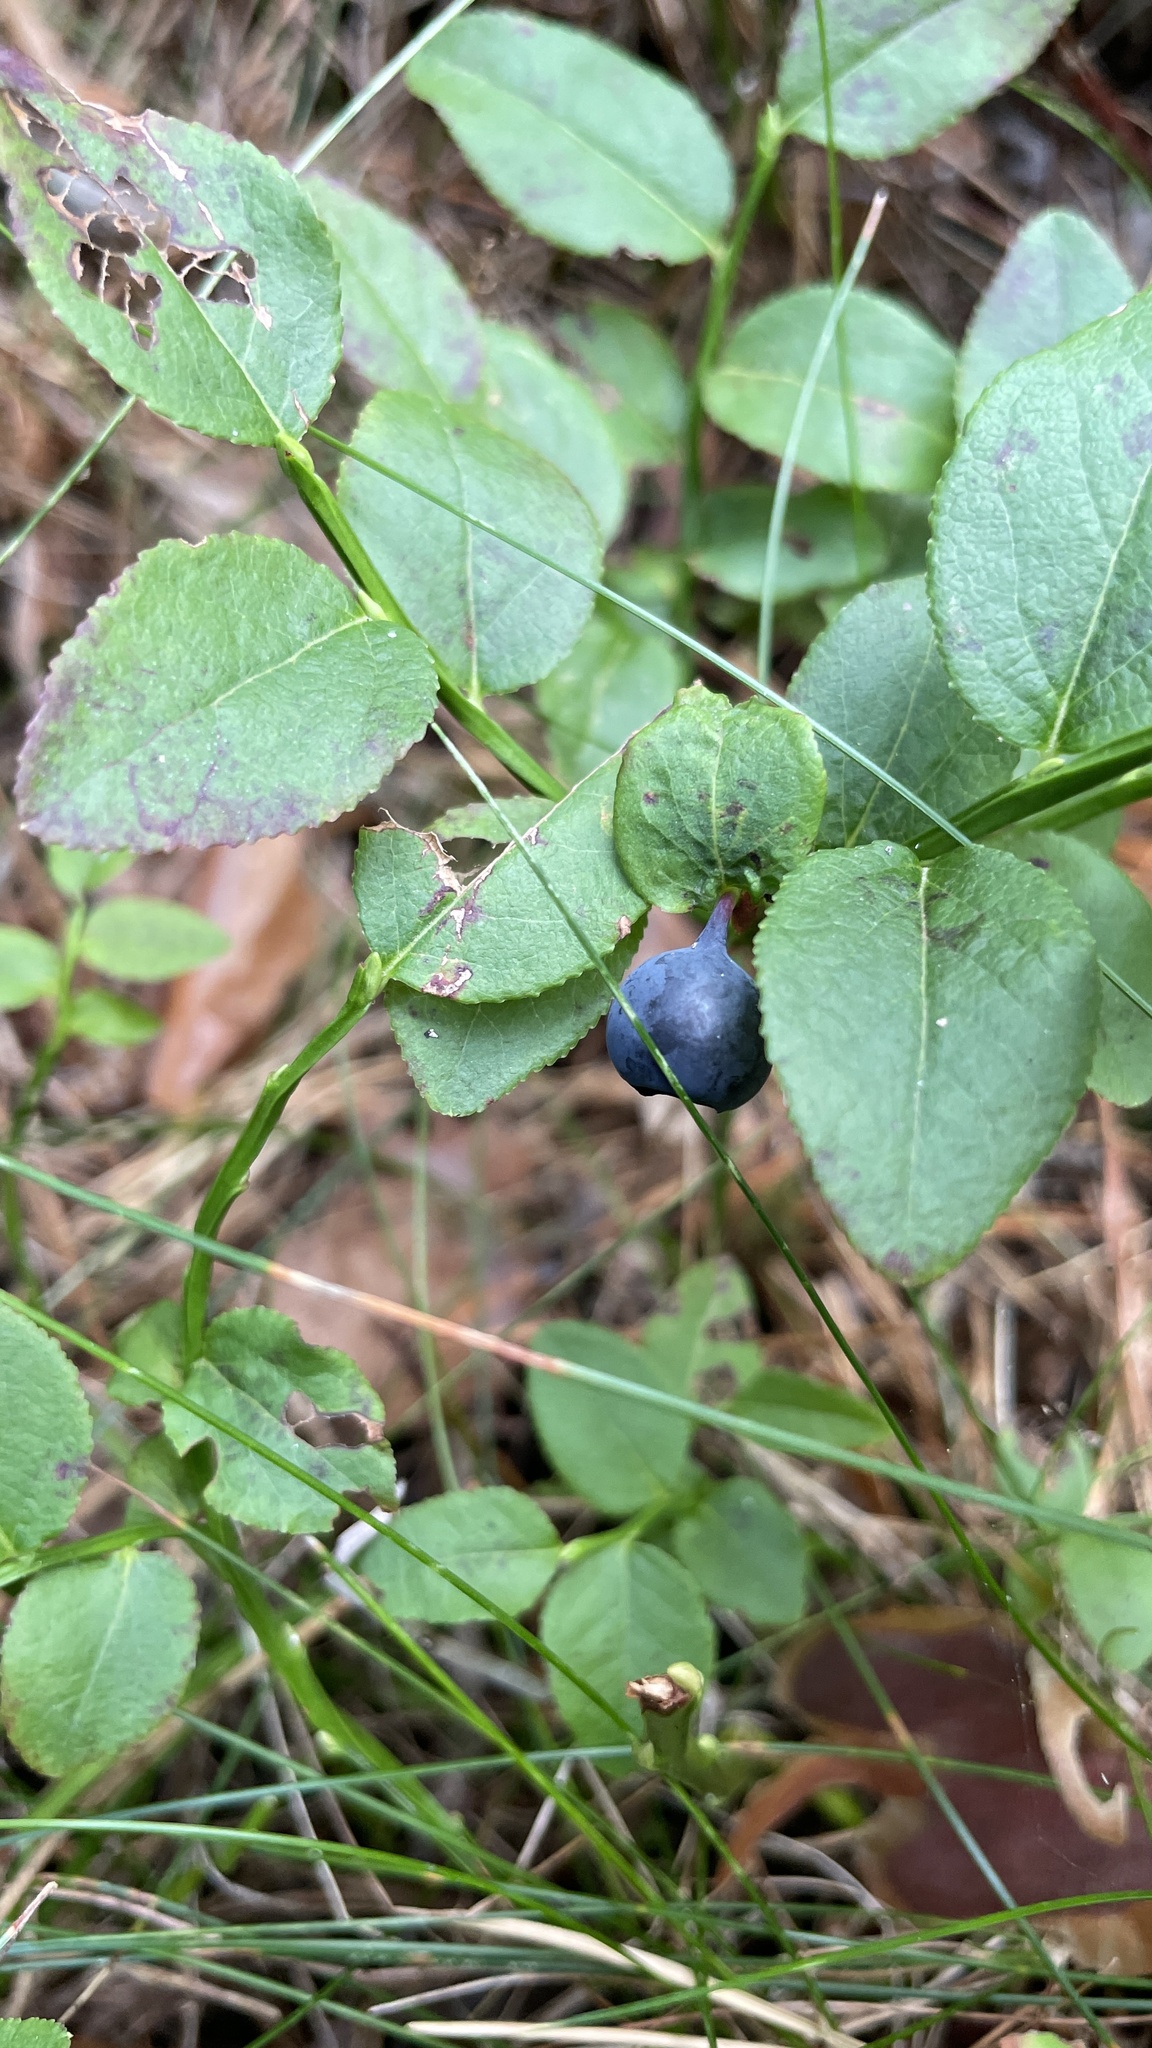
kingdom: Plantae
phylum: Tracheophyta
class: Magnoliopsida
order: Ericales
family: Ericaceae
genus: Vaccinium
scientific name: Vaccinium myrtillus
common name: Bilberry
